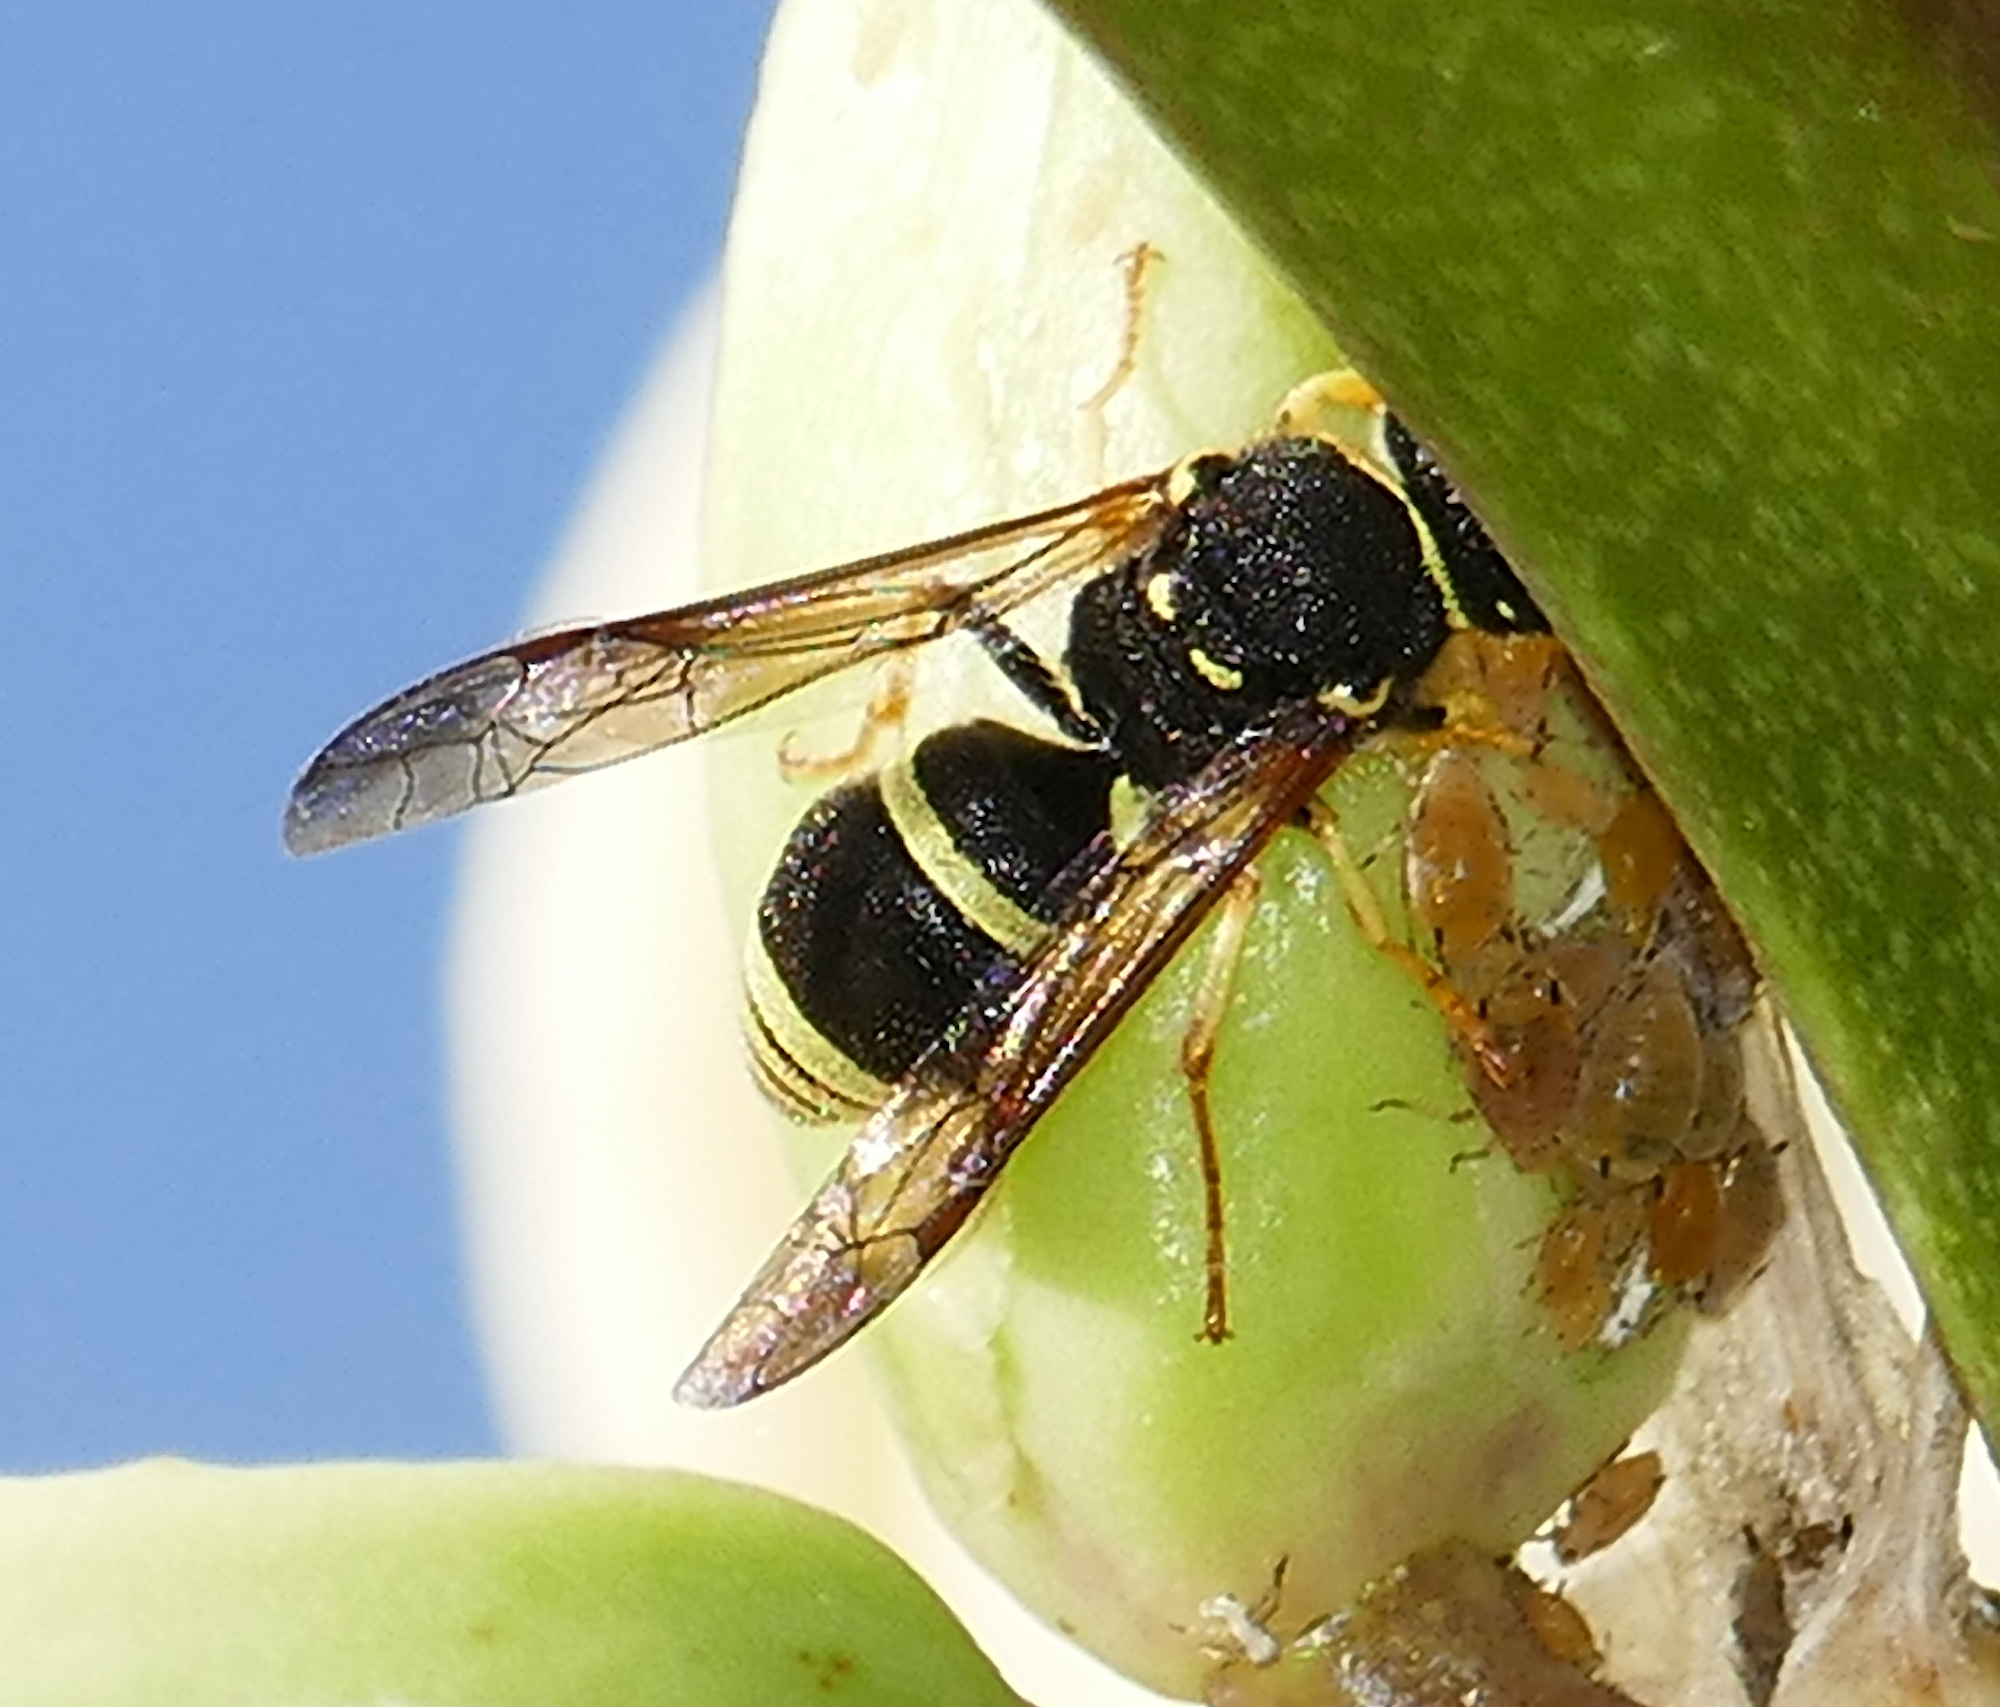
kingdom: Animalia
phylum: Arthropoda
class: Insecta
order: Hymenoptera
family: Vespidae
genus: Ancistrocerus
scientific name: Ancistrocerus
